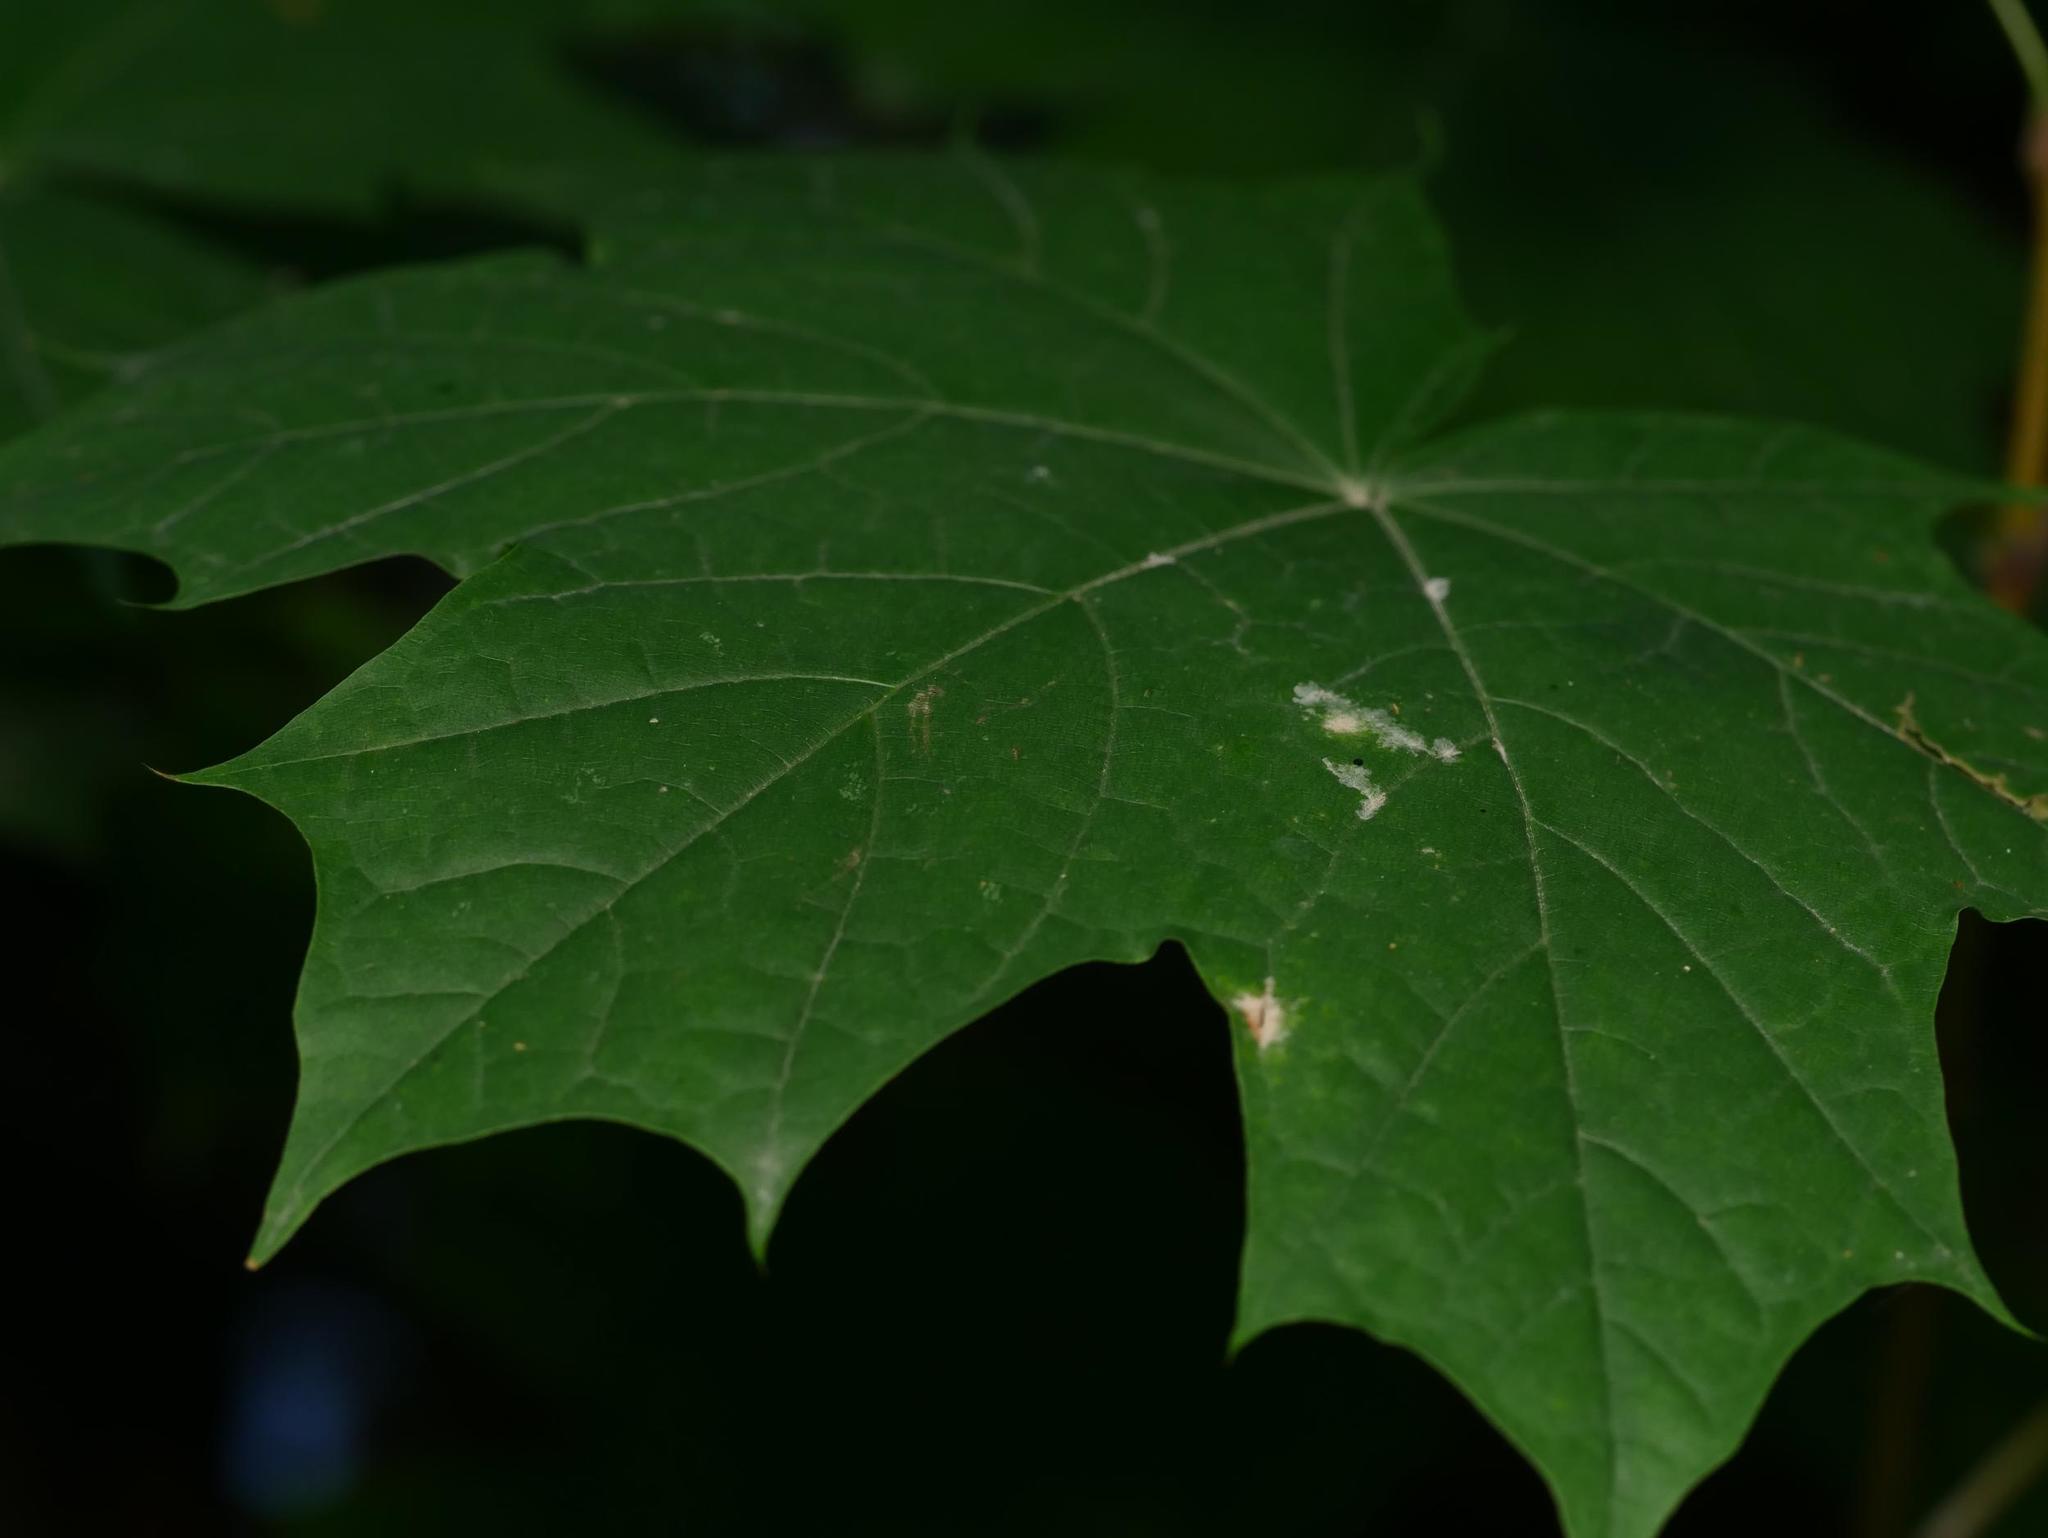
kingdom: Plantae
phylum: Tracheophyta
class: Magnoliopsida
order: Sapindales
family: Sapindaceae
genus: Acer
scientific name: Acer platanoides
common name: Norway maple
